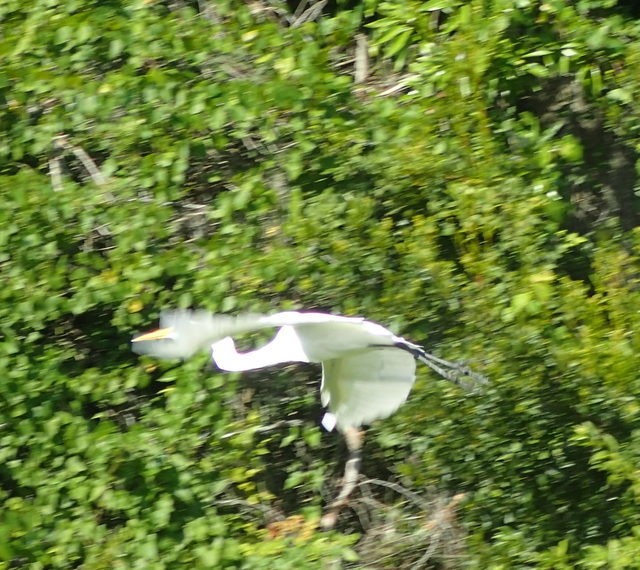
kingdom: Animalia
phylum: Chordata
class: Aves
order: Pelecaniformes
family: Ardeidae
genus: Ardea
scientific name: Ardea alba
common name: Great egret
